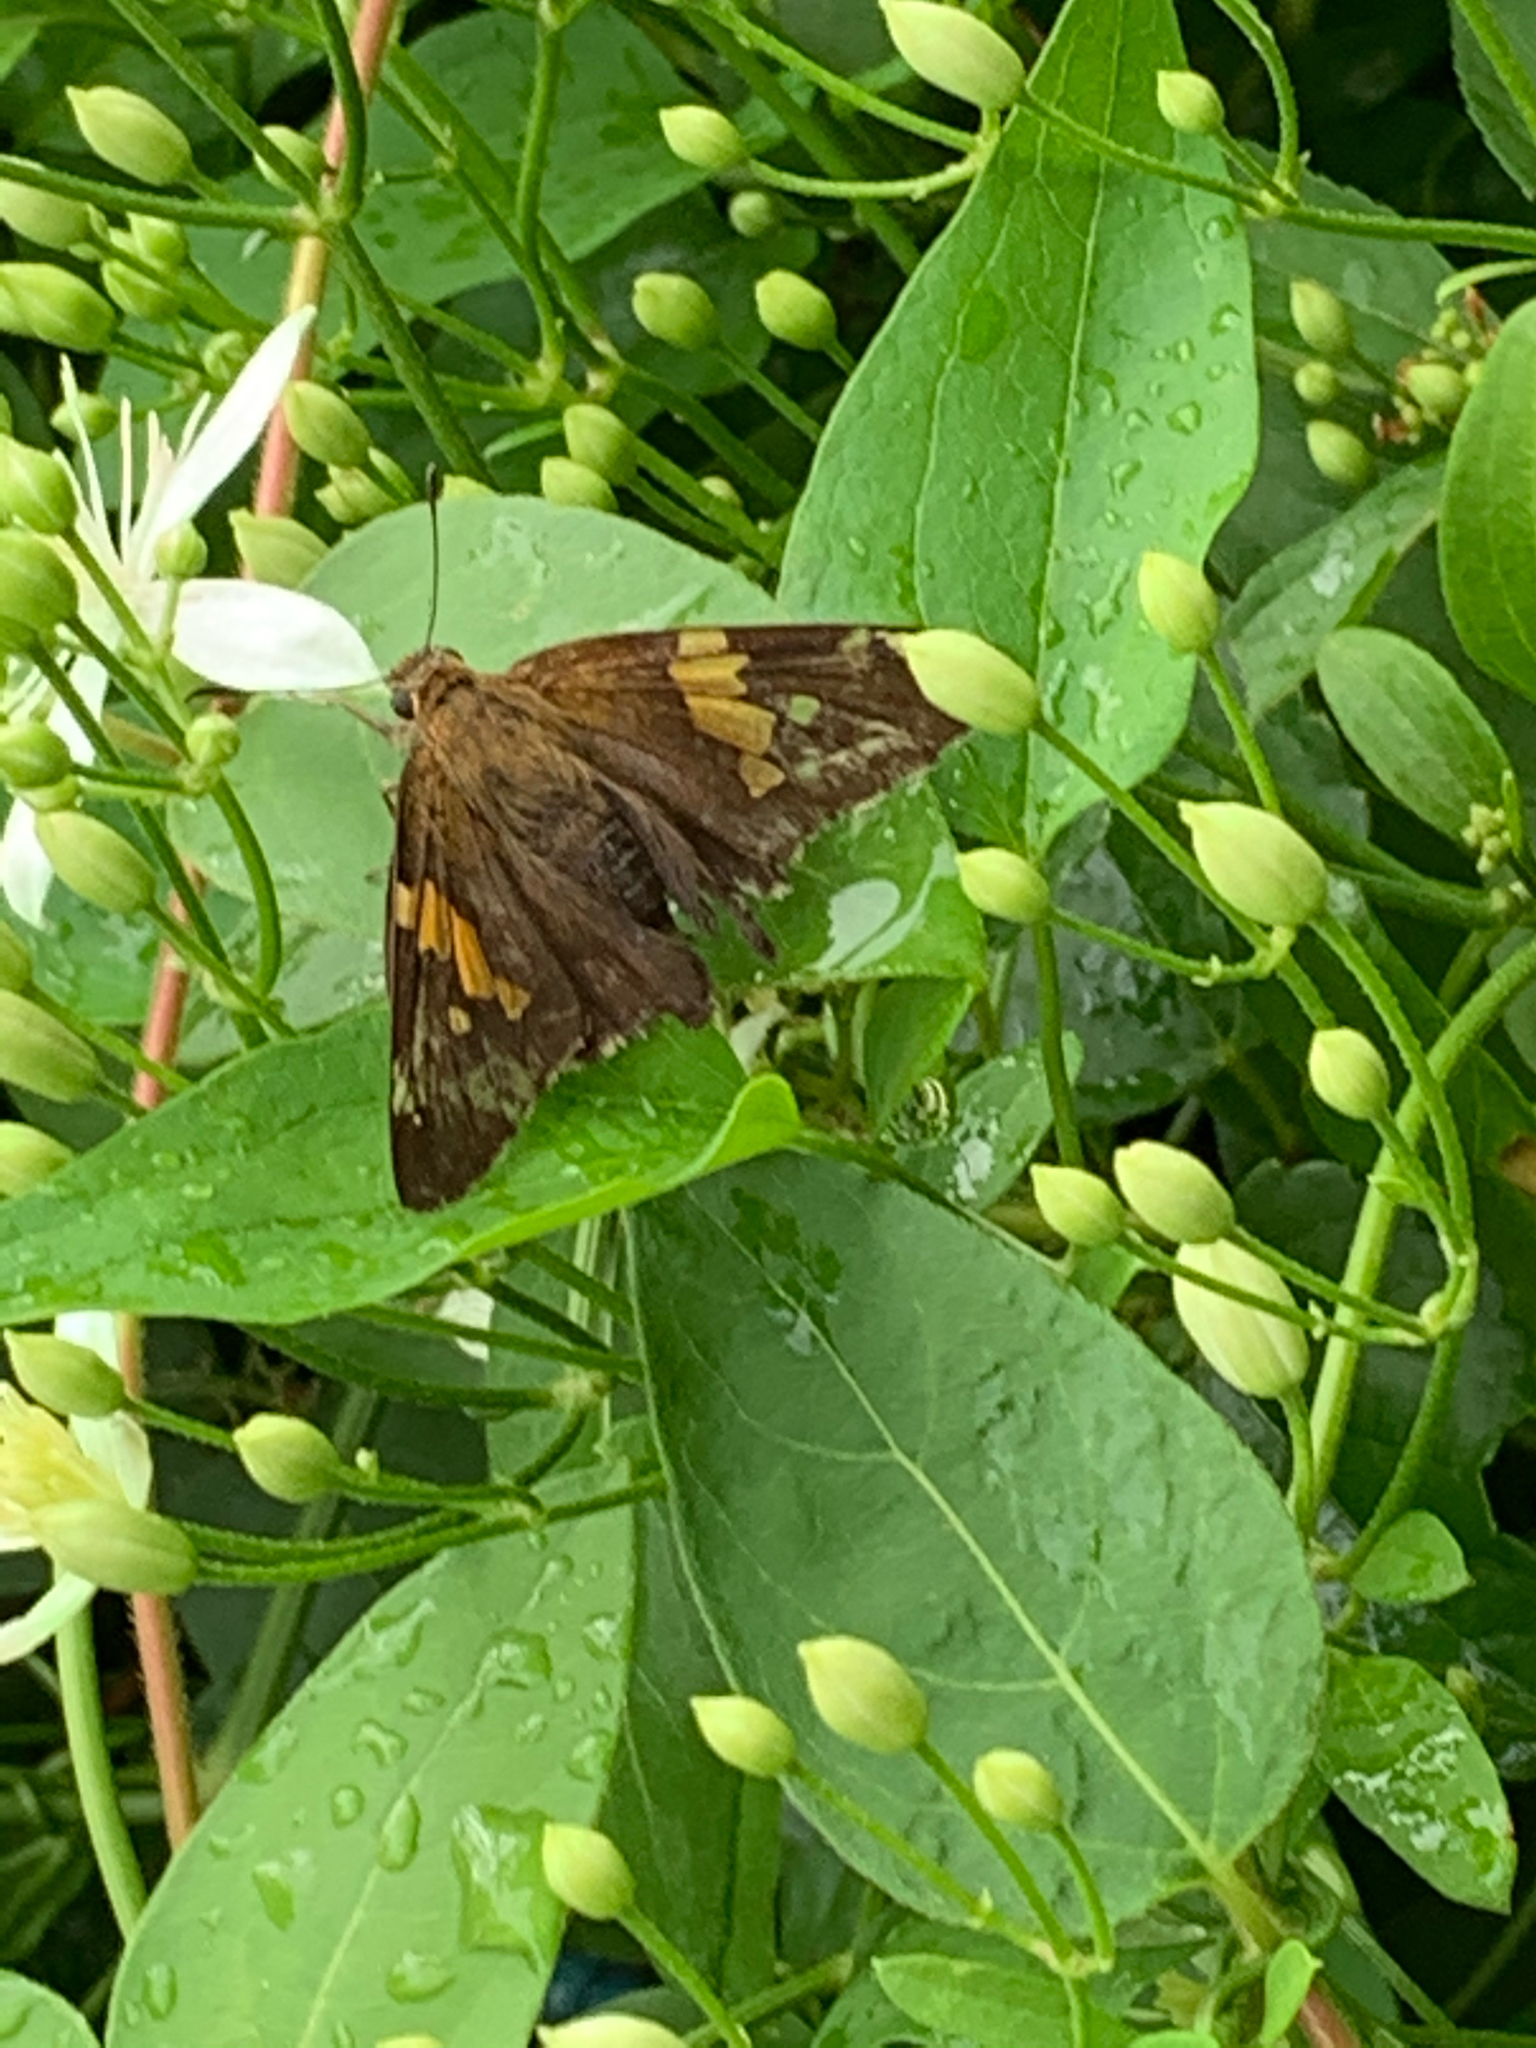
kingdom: Animalia
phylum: Arthropoda
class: Insecta
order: Lepidoptera
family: Hesperiidae
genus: Epargyreus
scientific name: Epargyreus clarus
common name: Silver-spotted skipper
